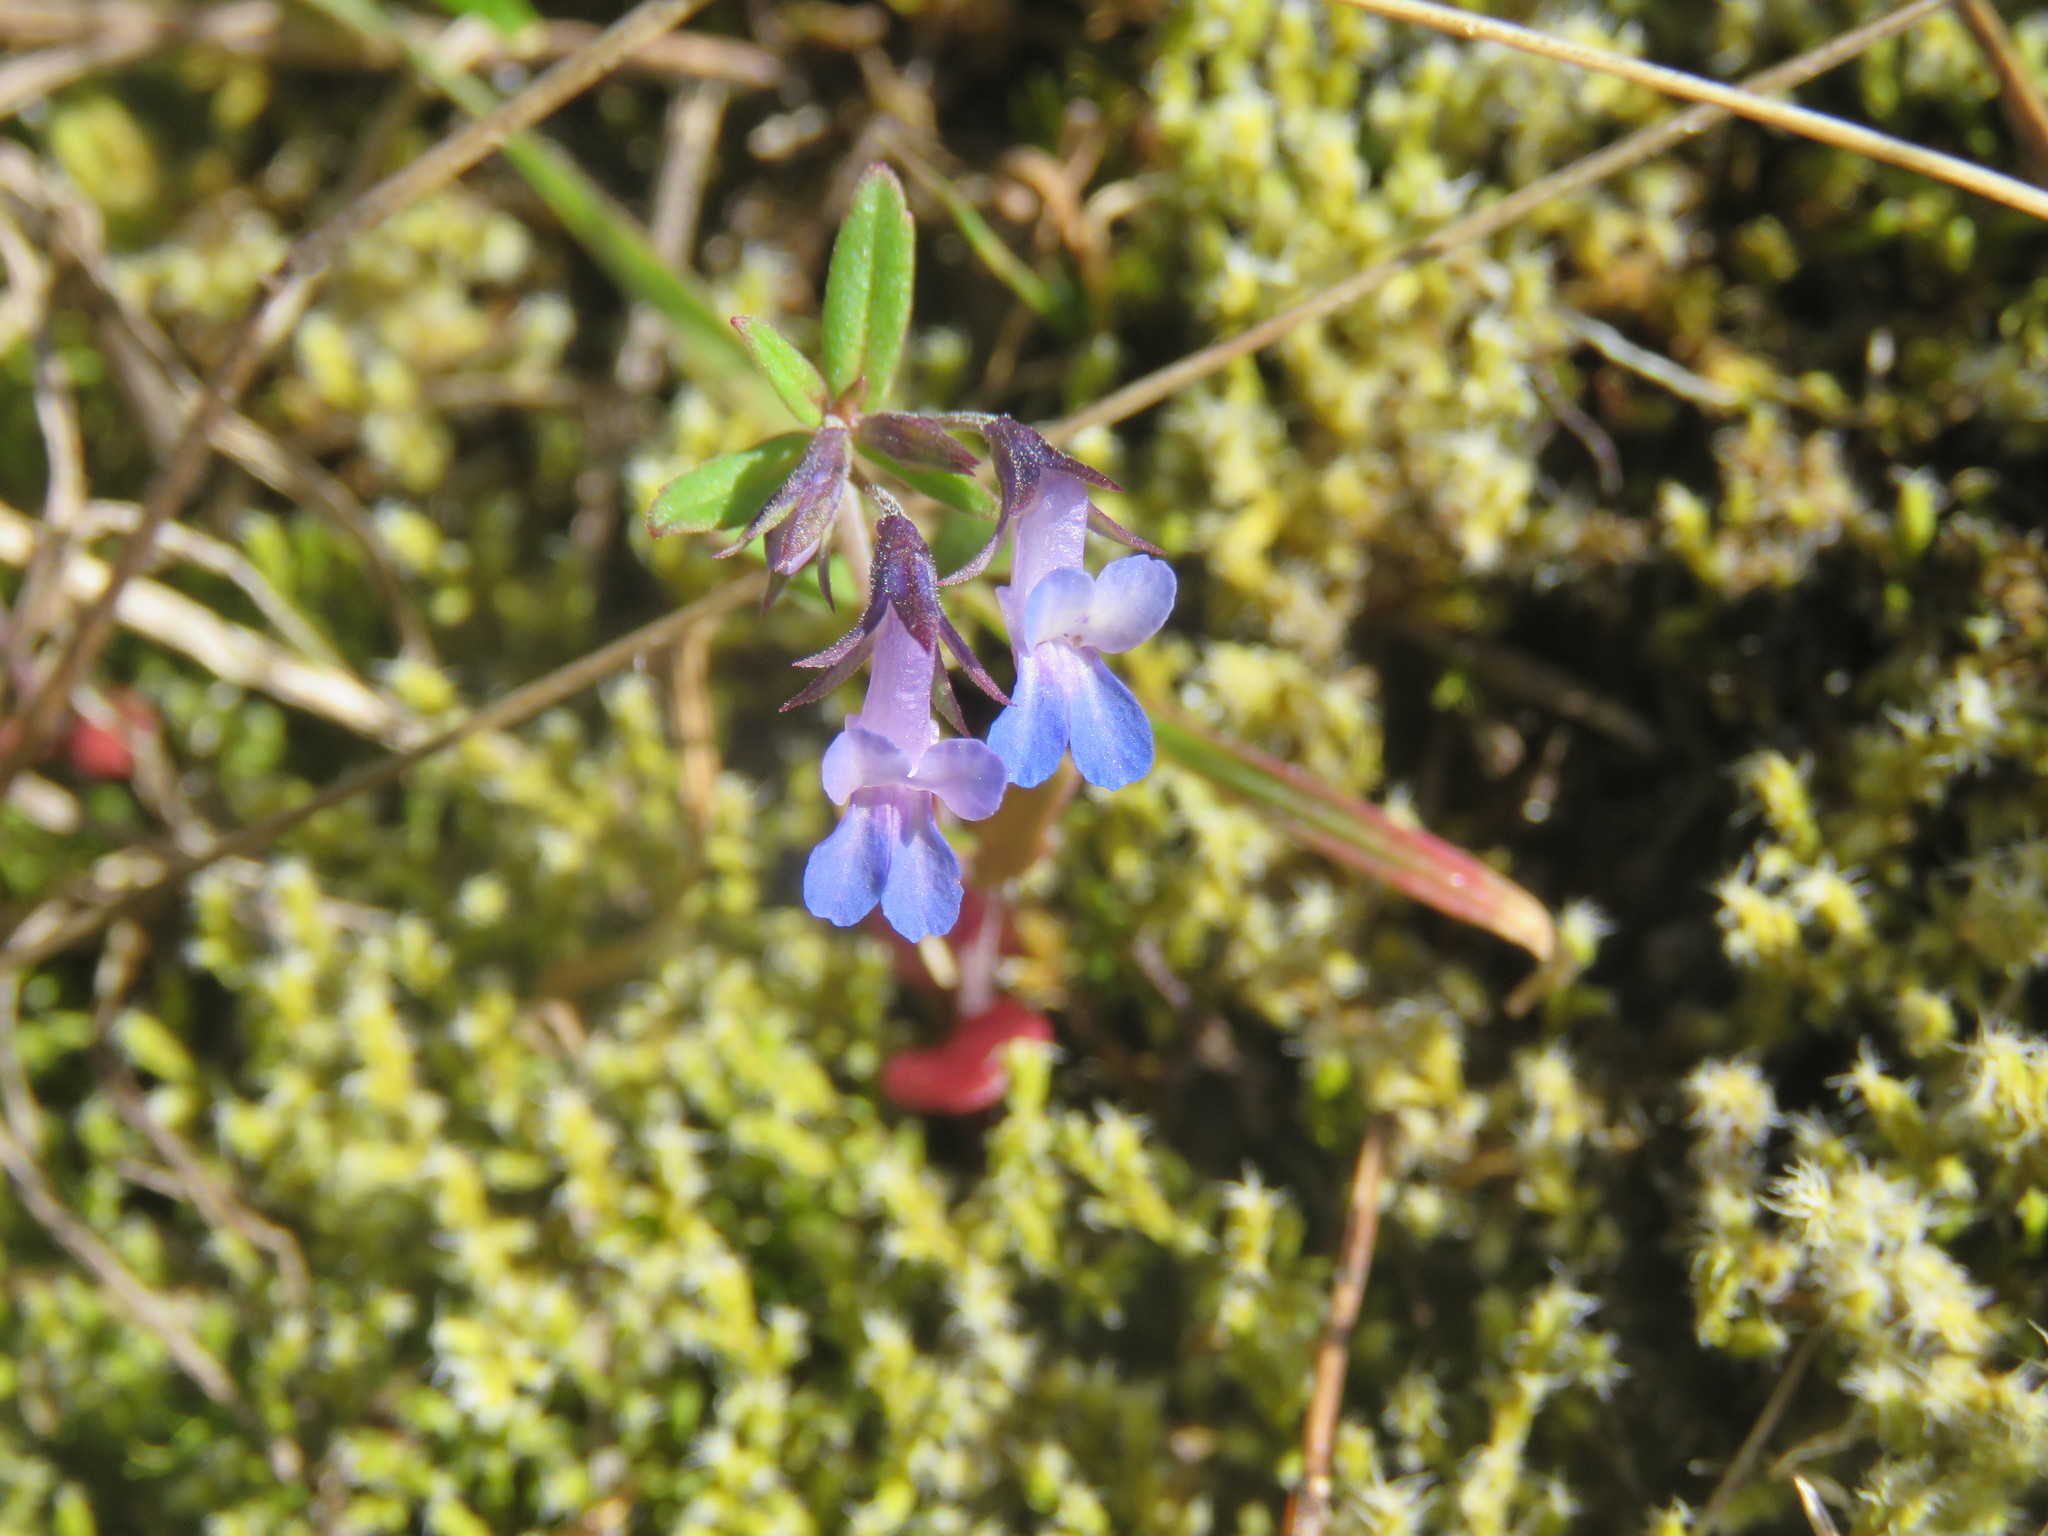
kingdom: Plantae
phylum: Tracheophyta
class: Magnoliopsida
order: Lamiales
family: Plantaginaceae
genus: Collinsia
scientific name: Collinsia parviflora
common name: Blue-lips
